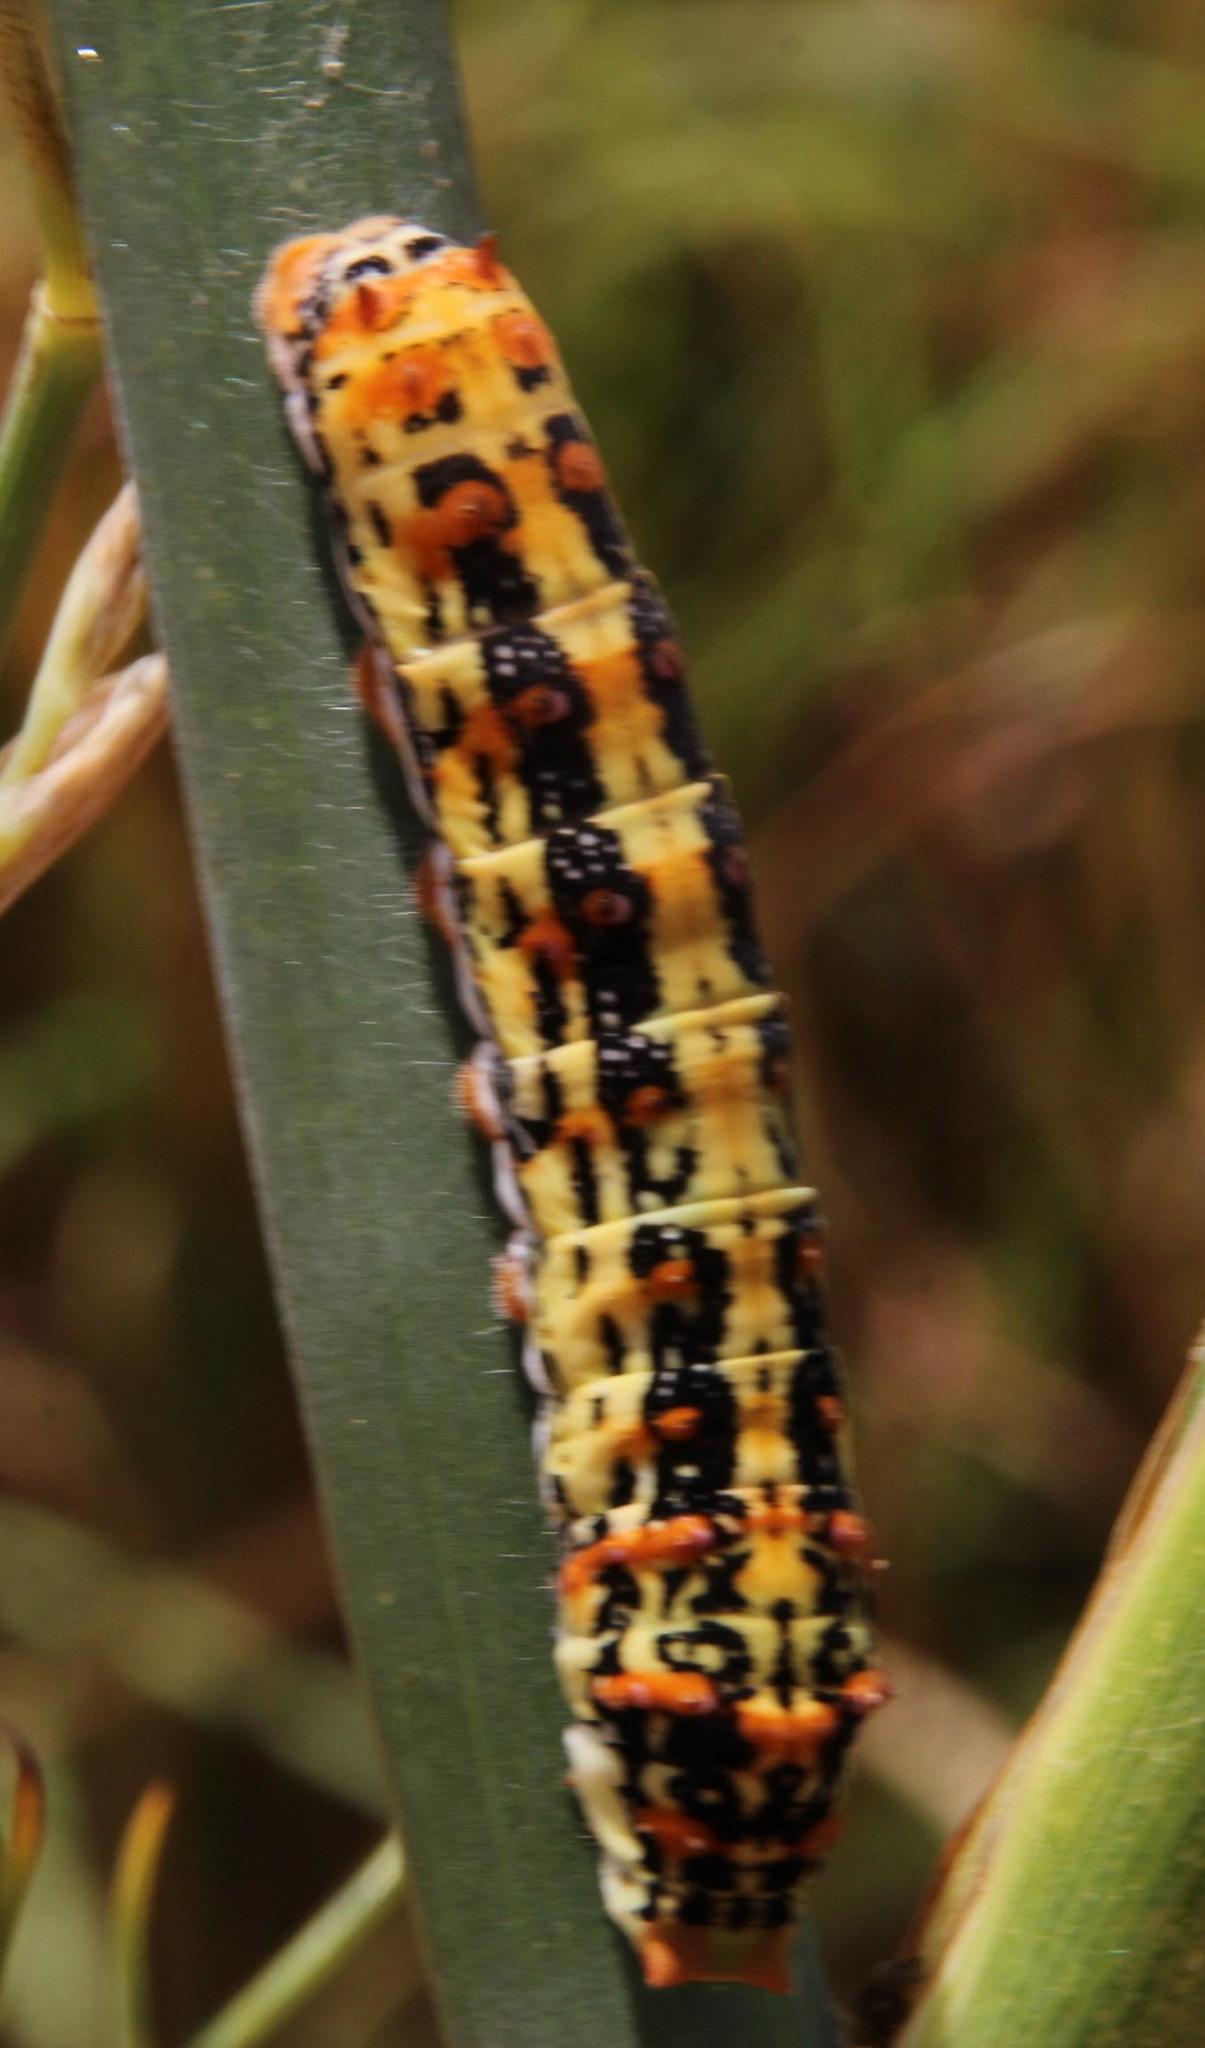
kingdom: Animalia
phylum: Arthropoda
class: Insecta
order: Lepidoptera
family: Papilionidae
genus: Papilio
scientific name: Papilio demodocus
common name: Christmas butterfly
